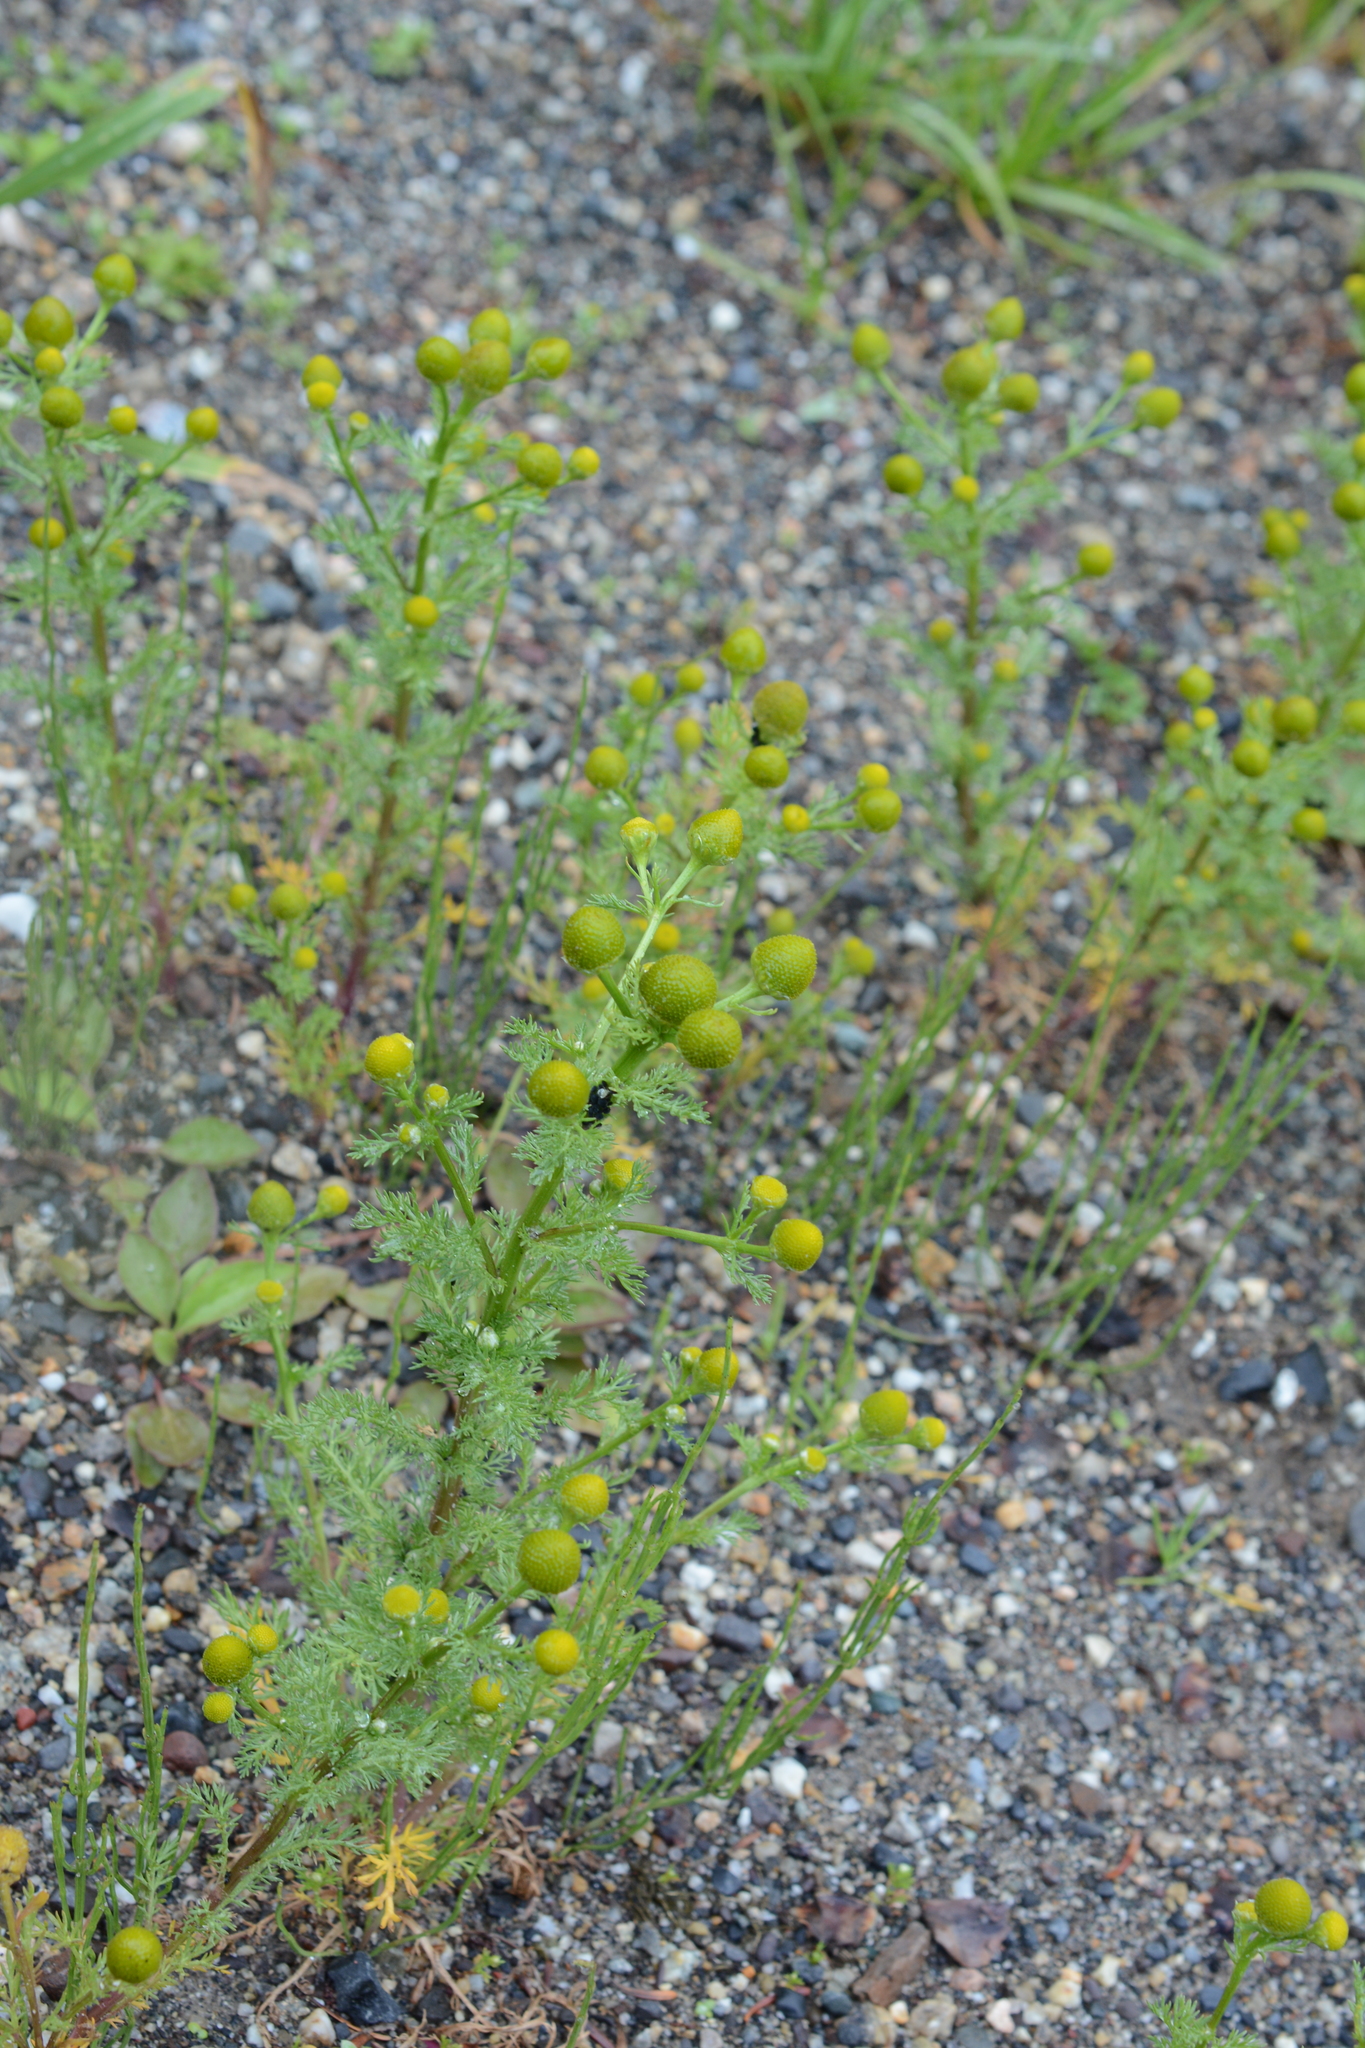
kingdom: Plantae
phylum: Tracheophyta
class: Magnoliopsida
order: Asterales
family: Asteraceae
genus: Matricaria
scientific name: Matricaria discoidea
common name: Disc mayweed
